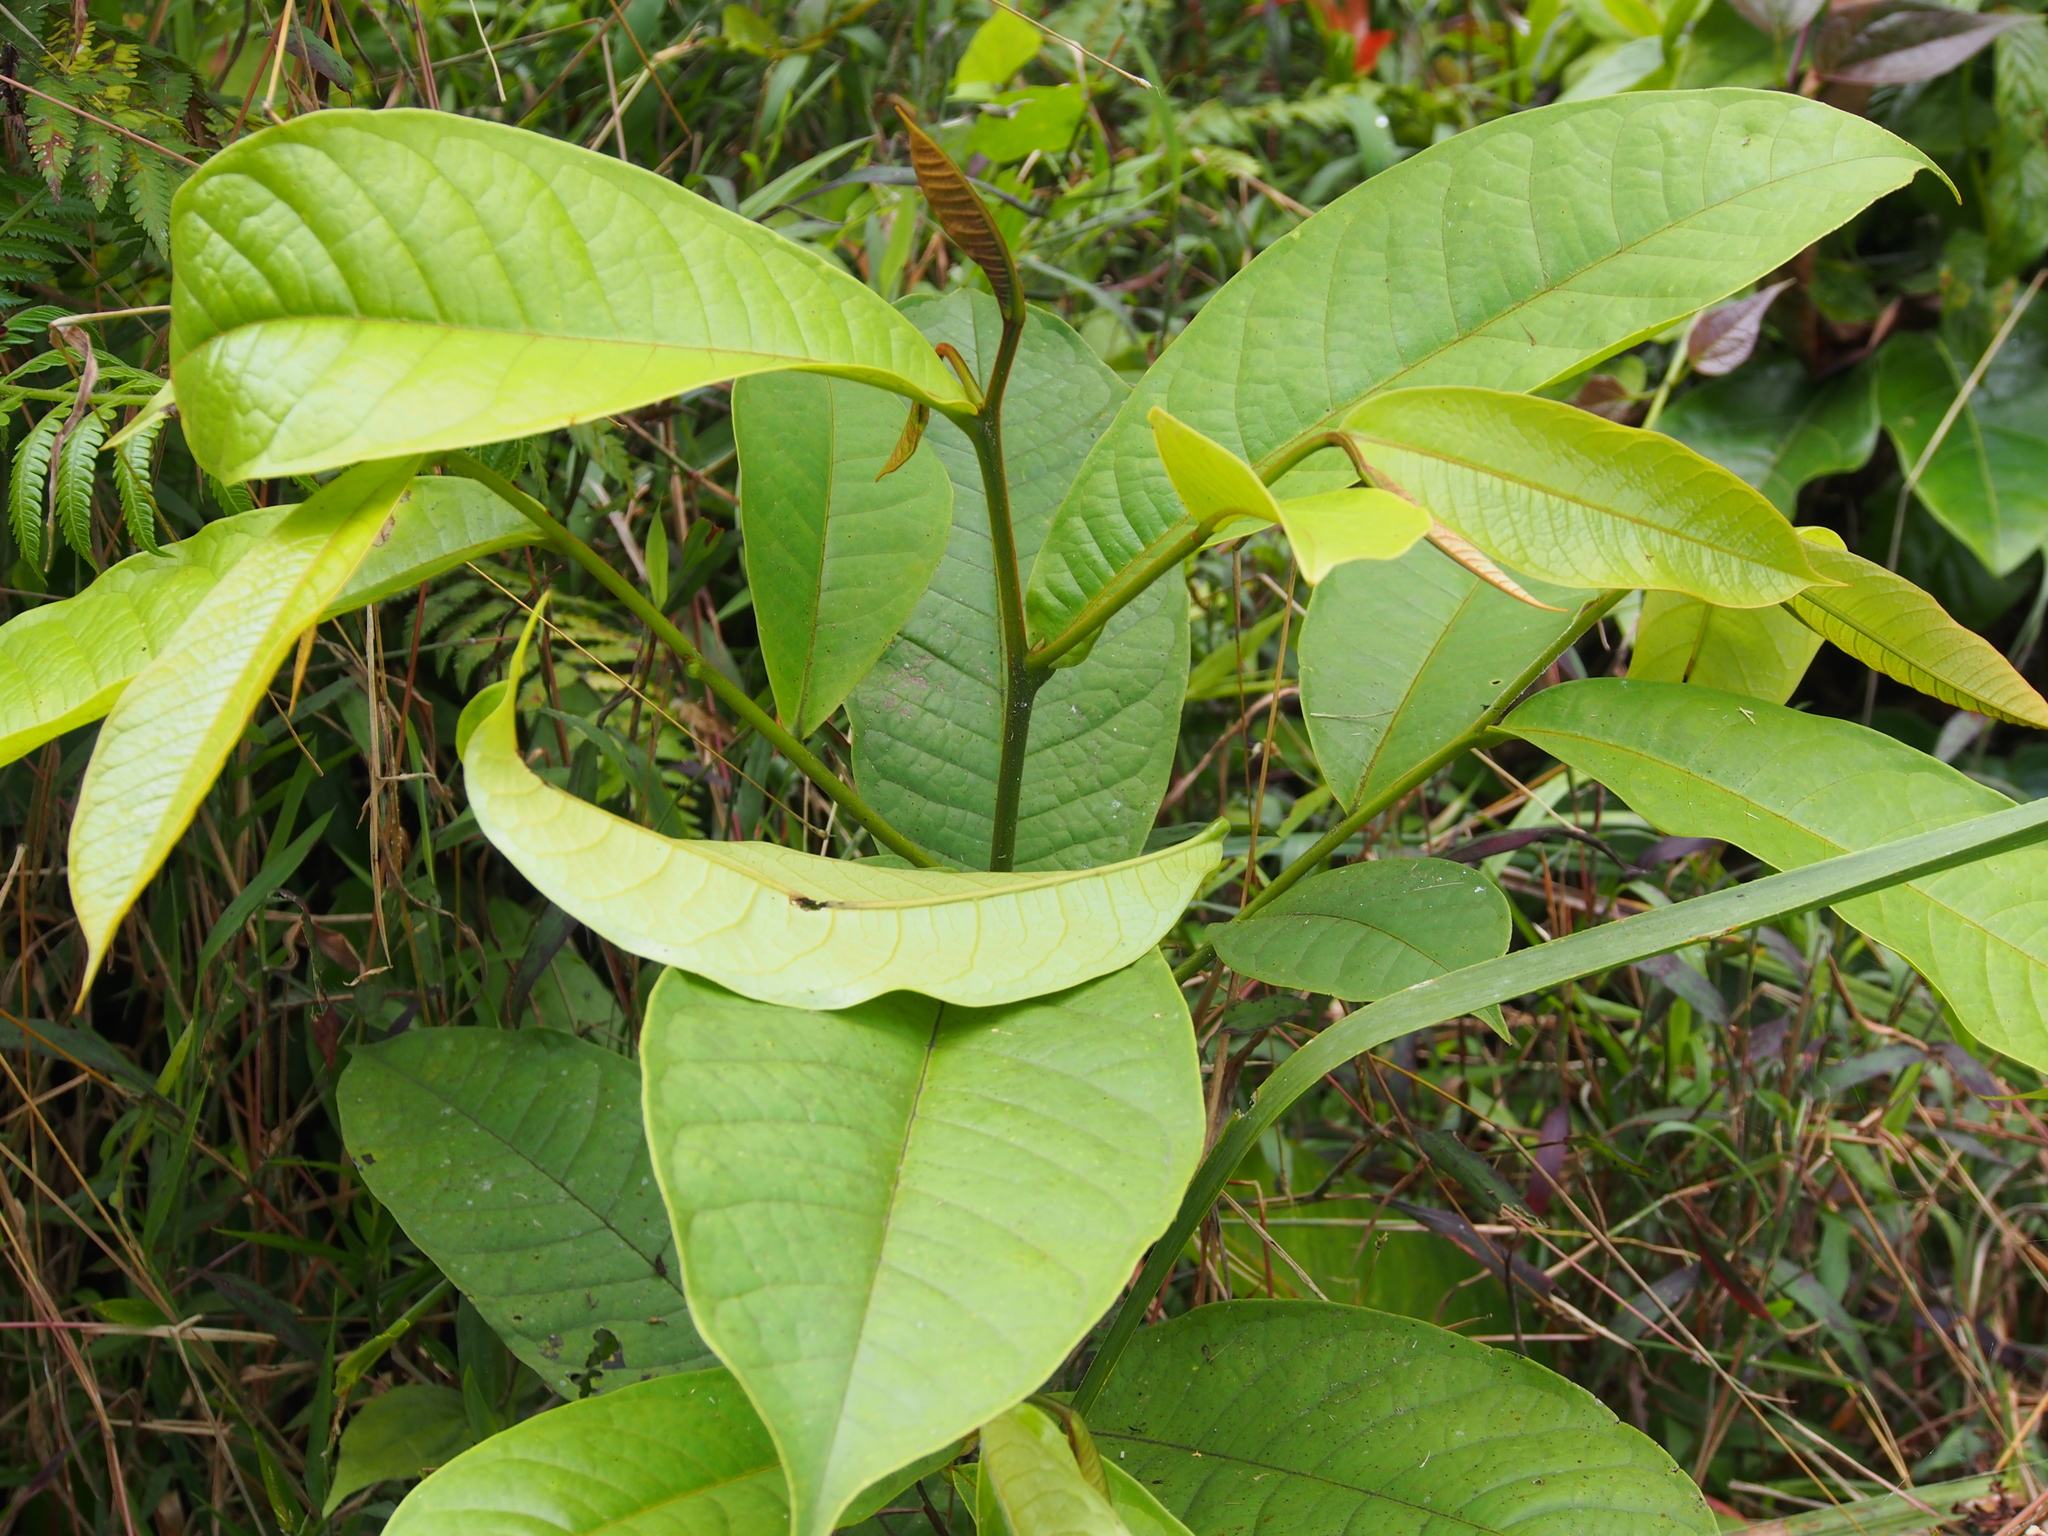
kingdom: Plantae
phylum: Tracheophyta
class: Magnoliopsida
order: Magnoliales
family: Annonaceae
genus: Guatteria
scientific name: Guatteria aeruginosa
